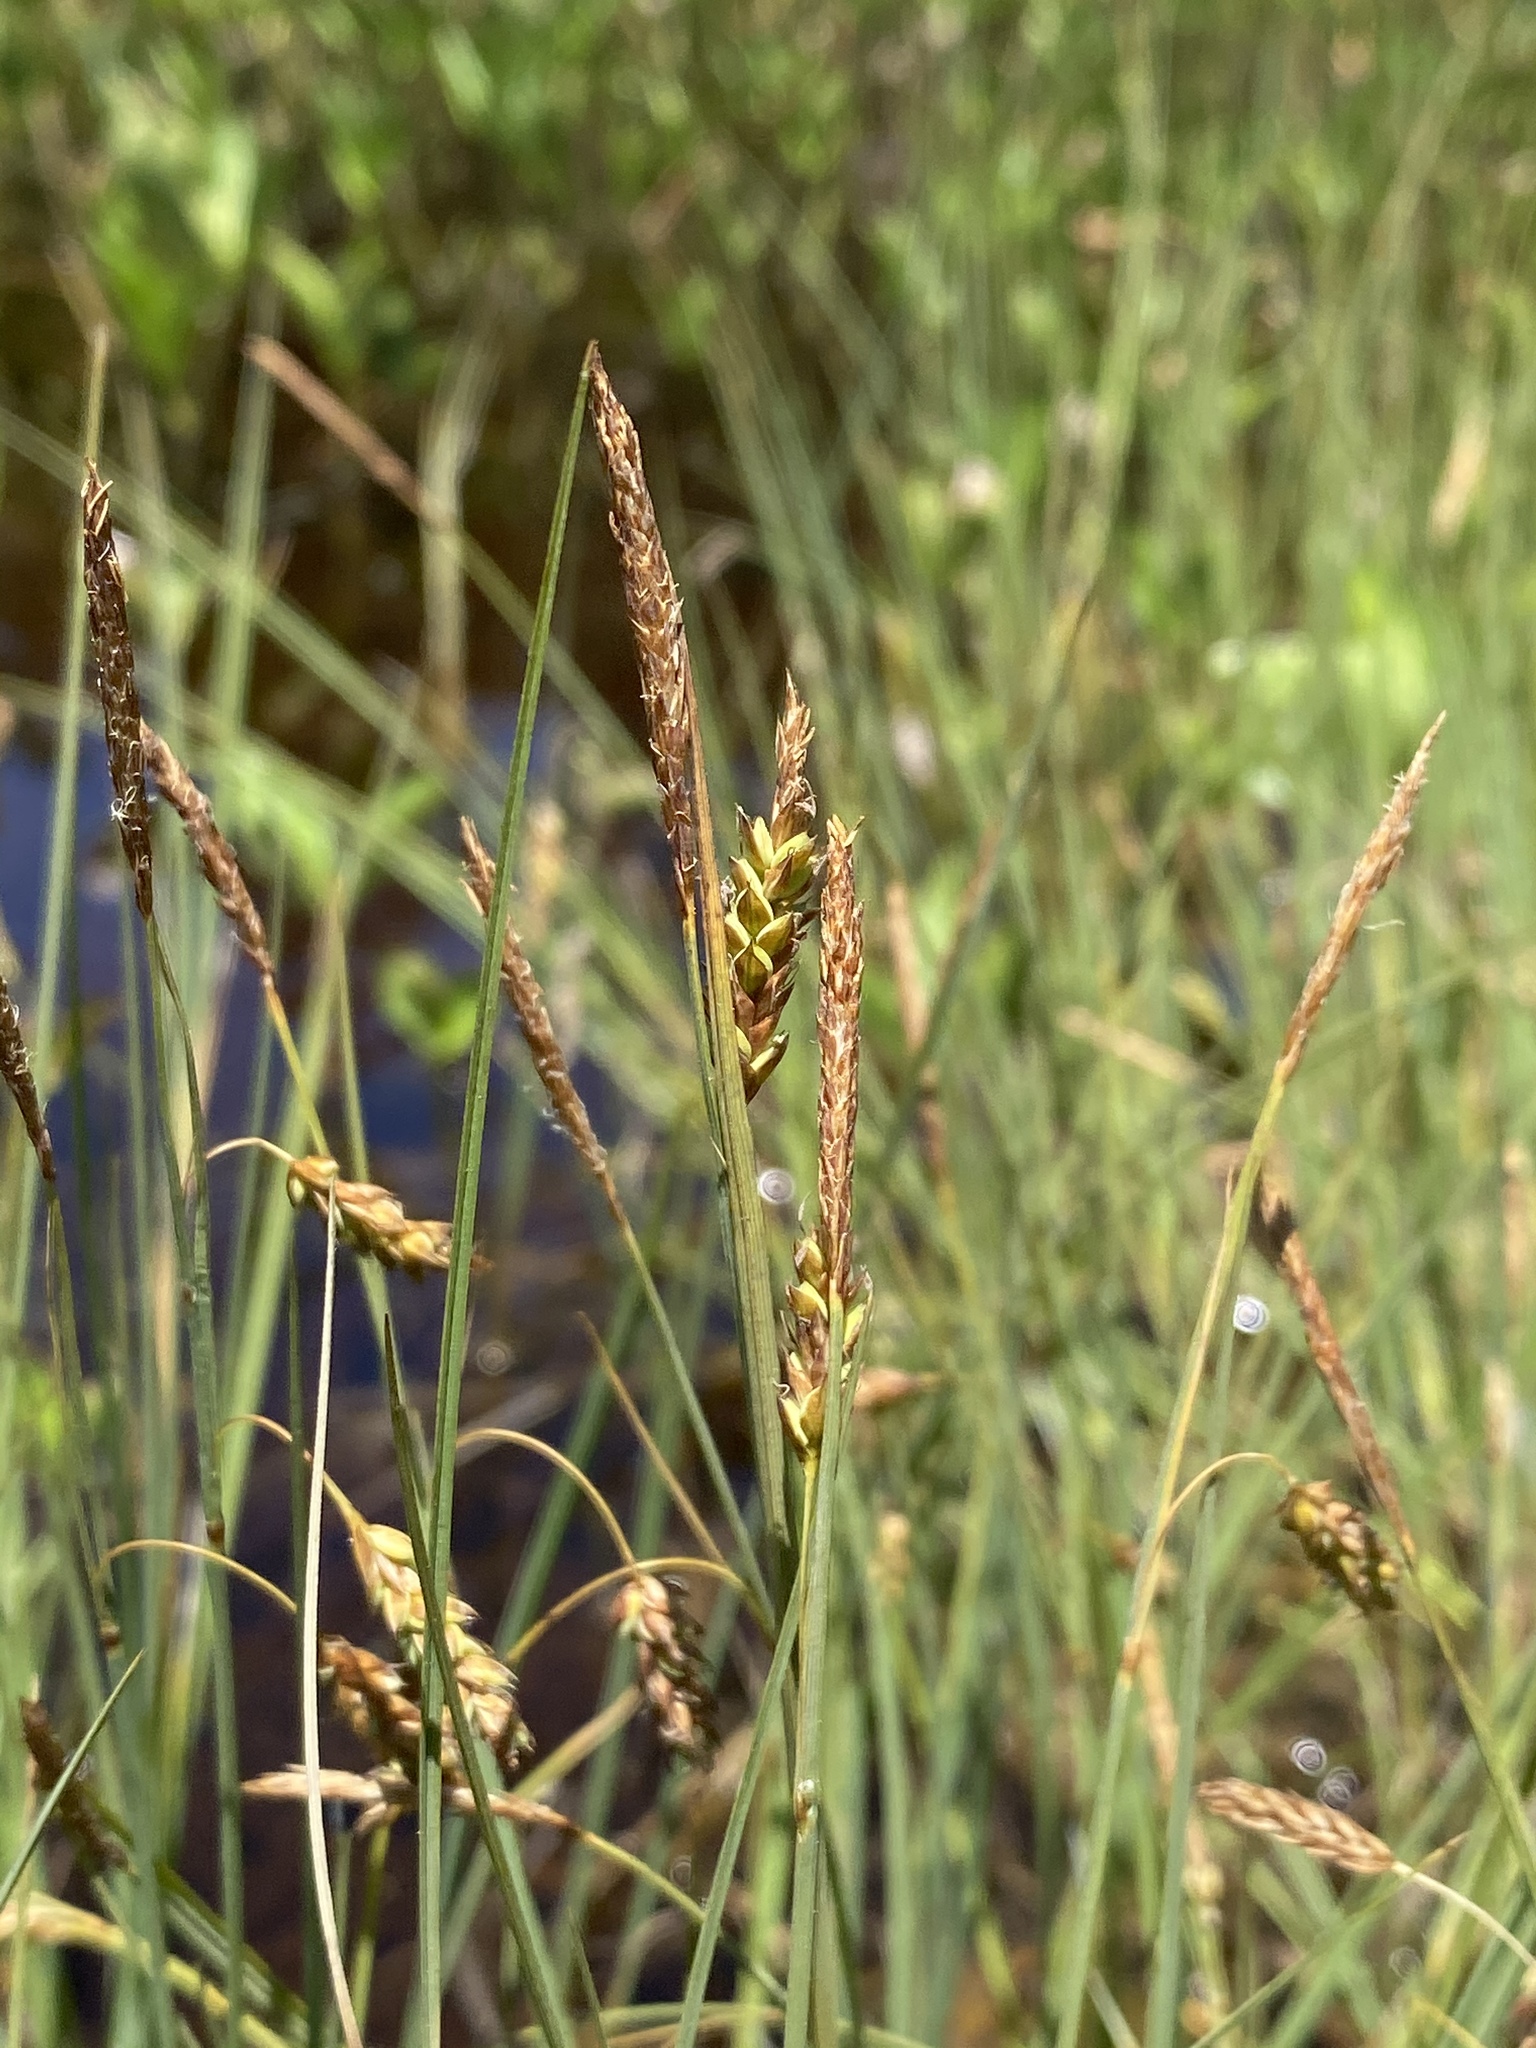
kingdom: Plantae
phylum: Tracheophyta
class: Liliopsida
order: Poales
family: Cyperaceae
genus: Carex
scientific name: Carex limosa
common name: Bog sedge
